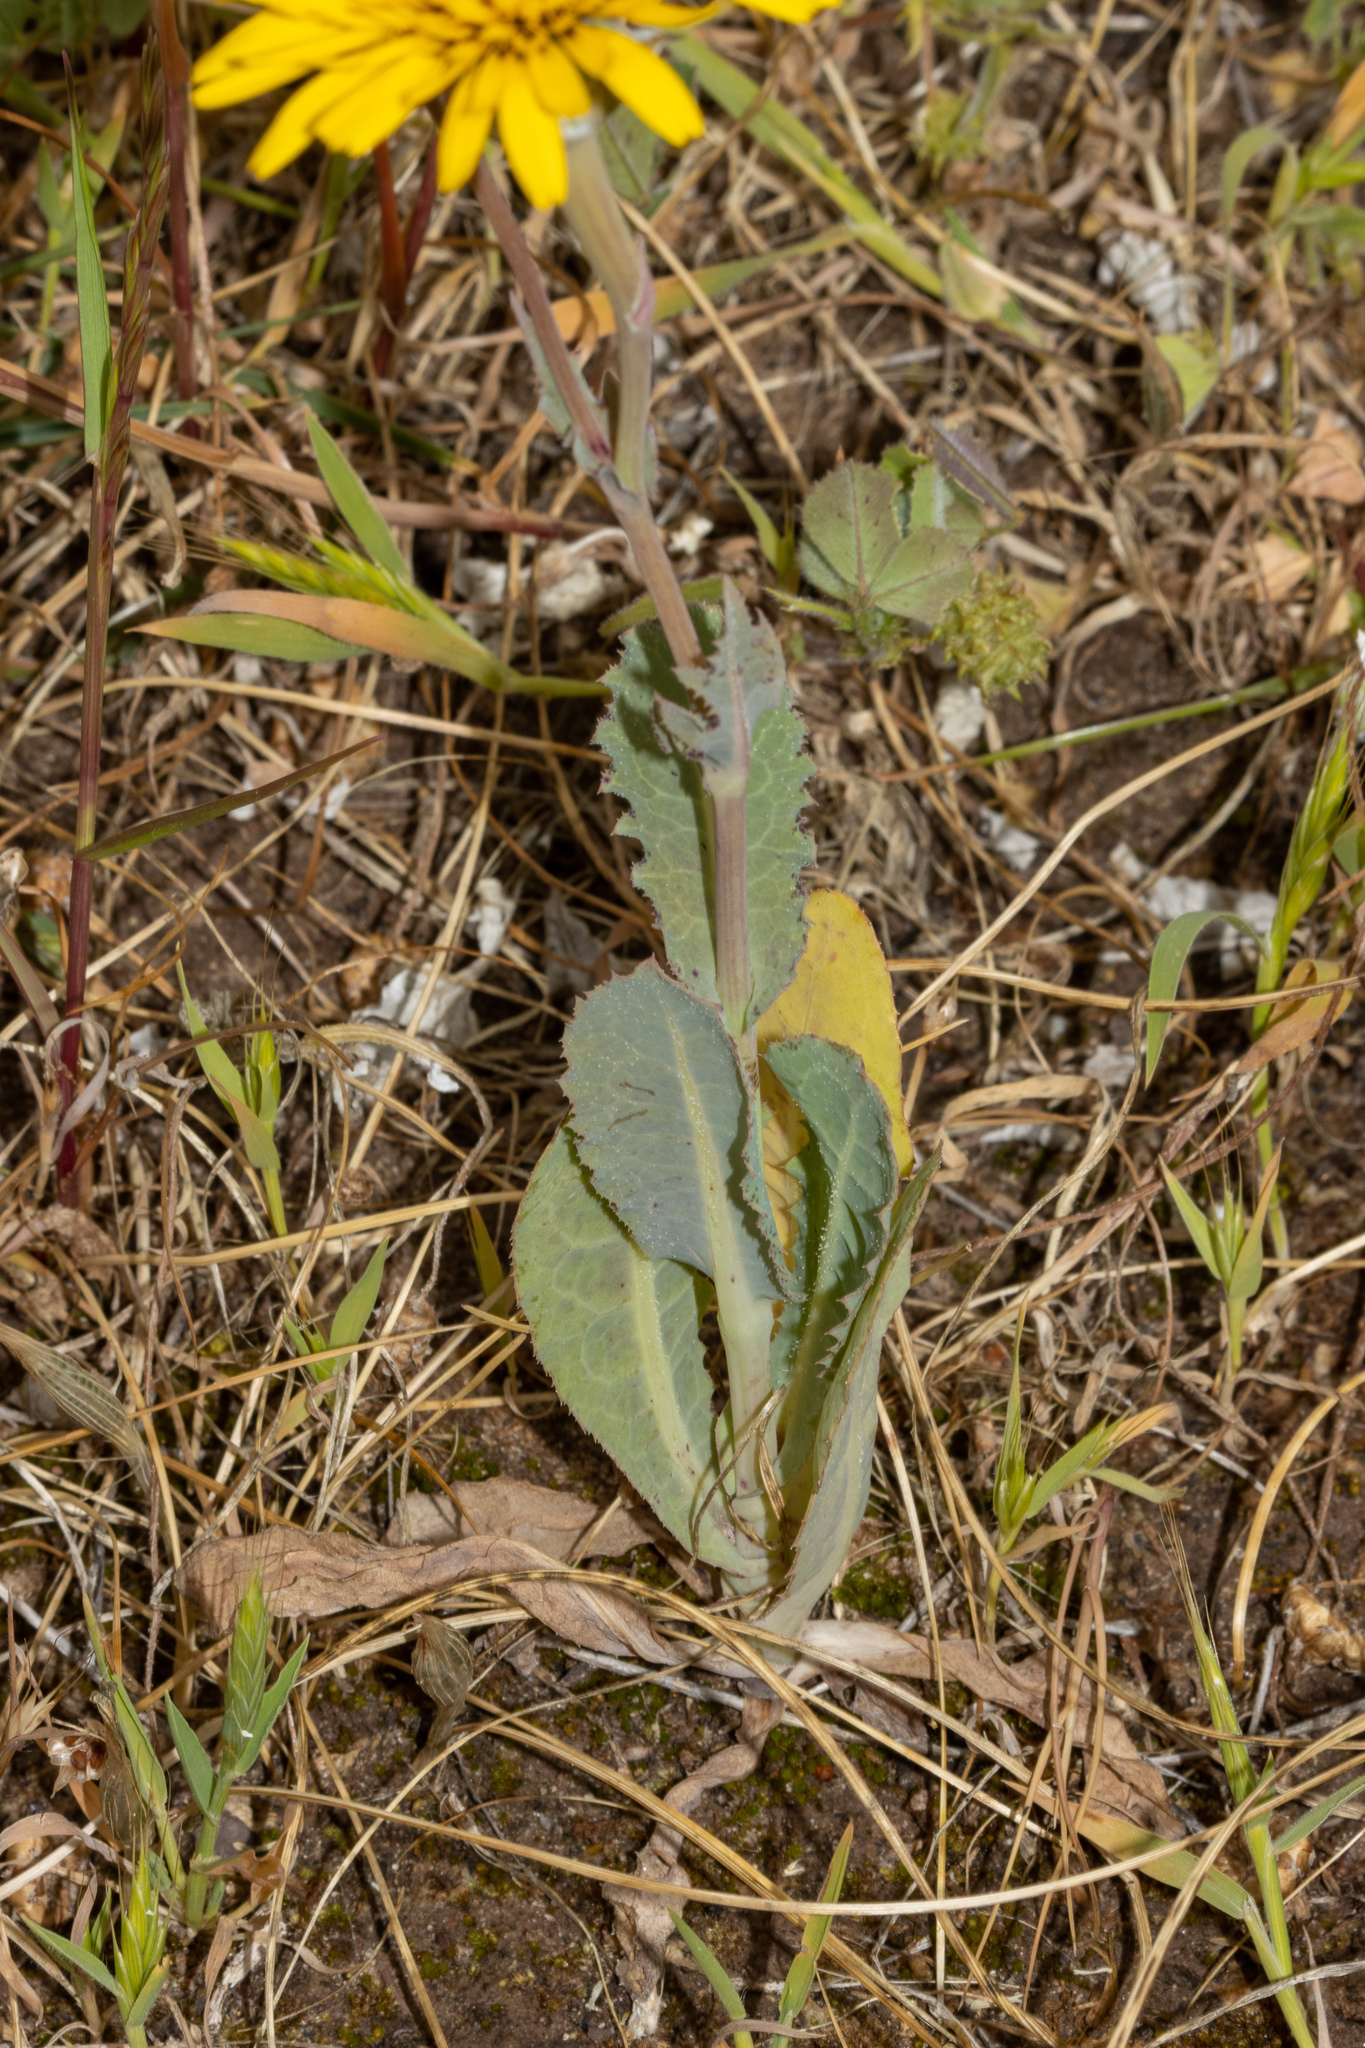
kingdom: Plantae
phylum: Tracheophyta
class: Magnoliopsida
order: Asterales
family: Asteraceae
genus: Reichardia
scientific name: Reichardia tingitana
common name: Reichardia
